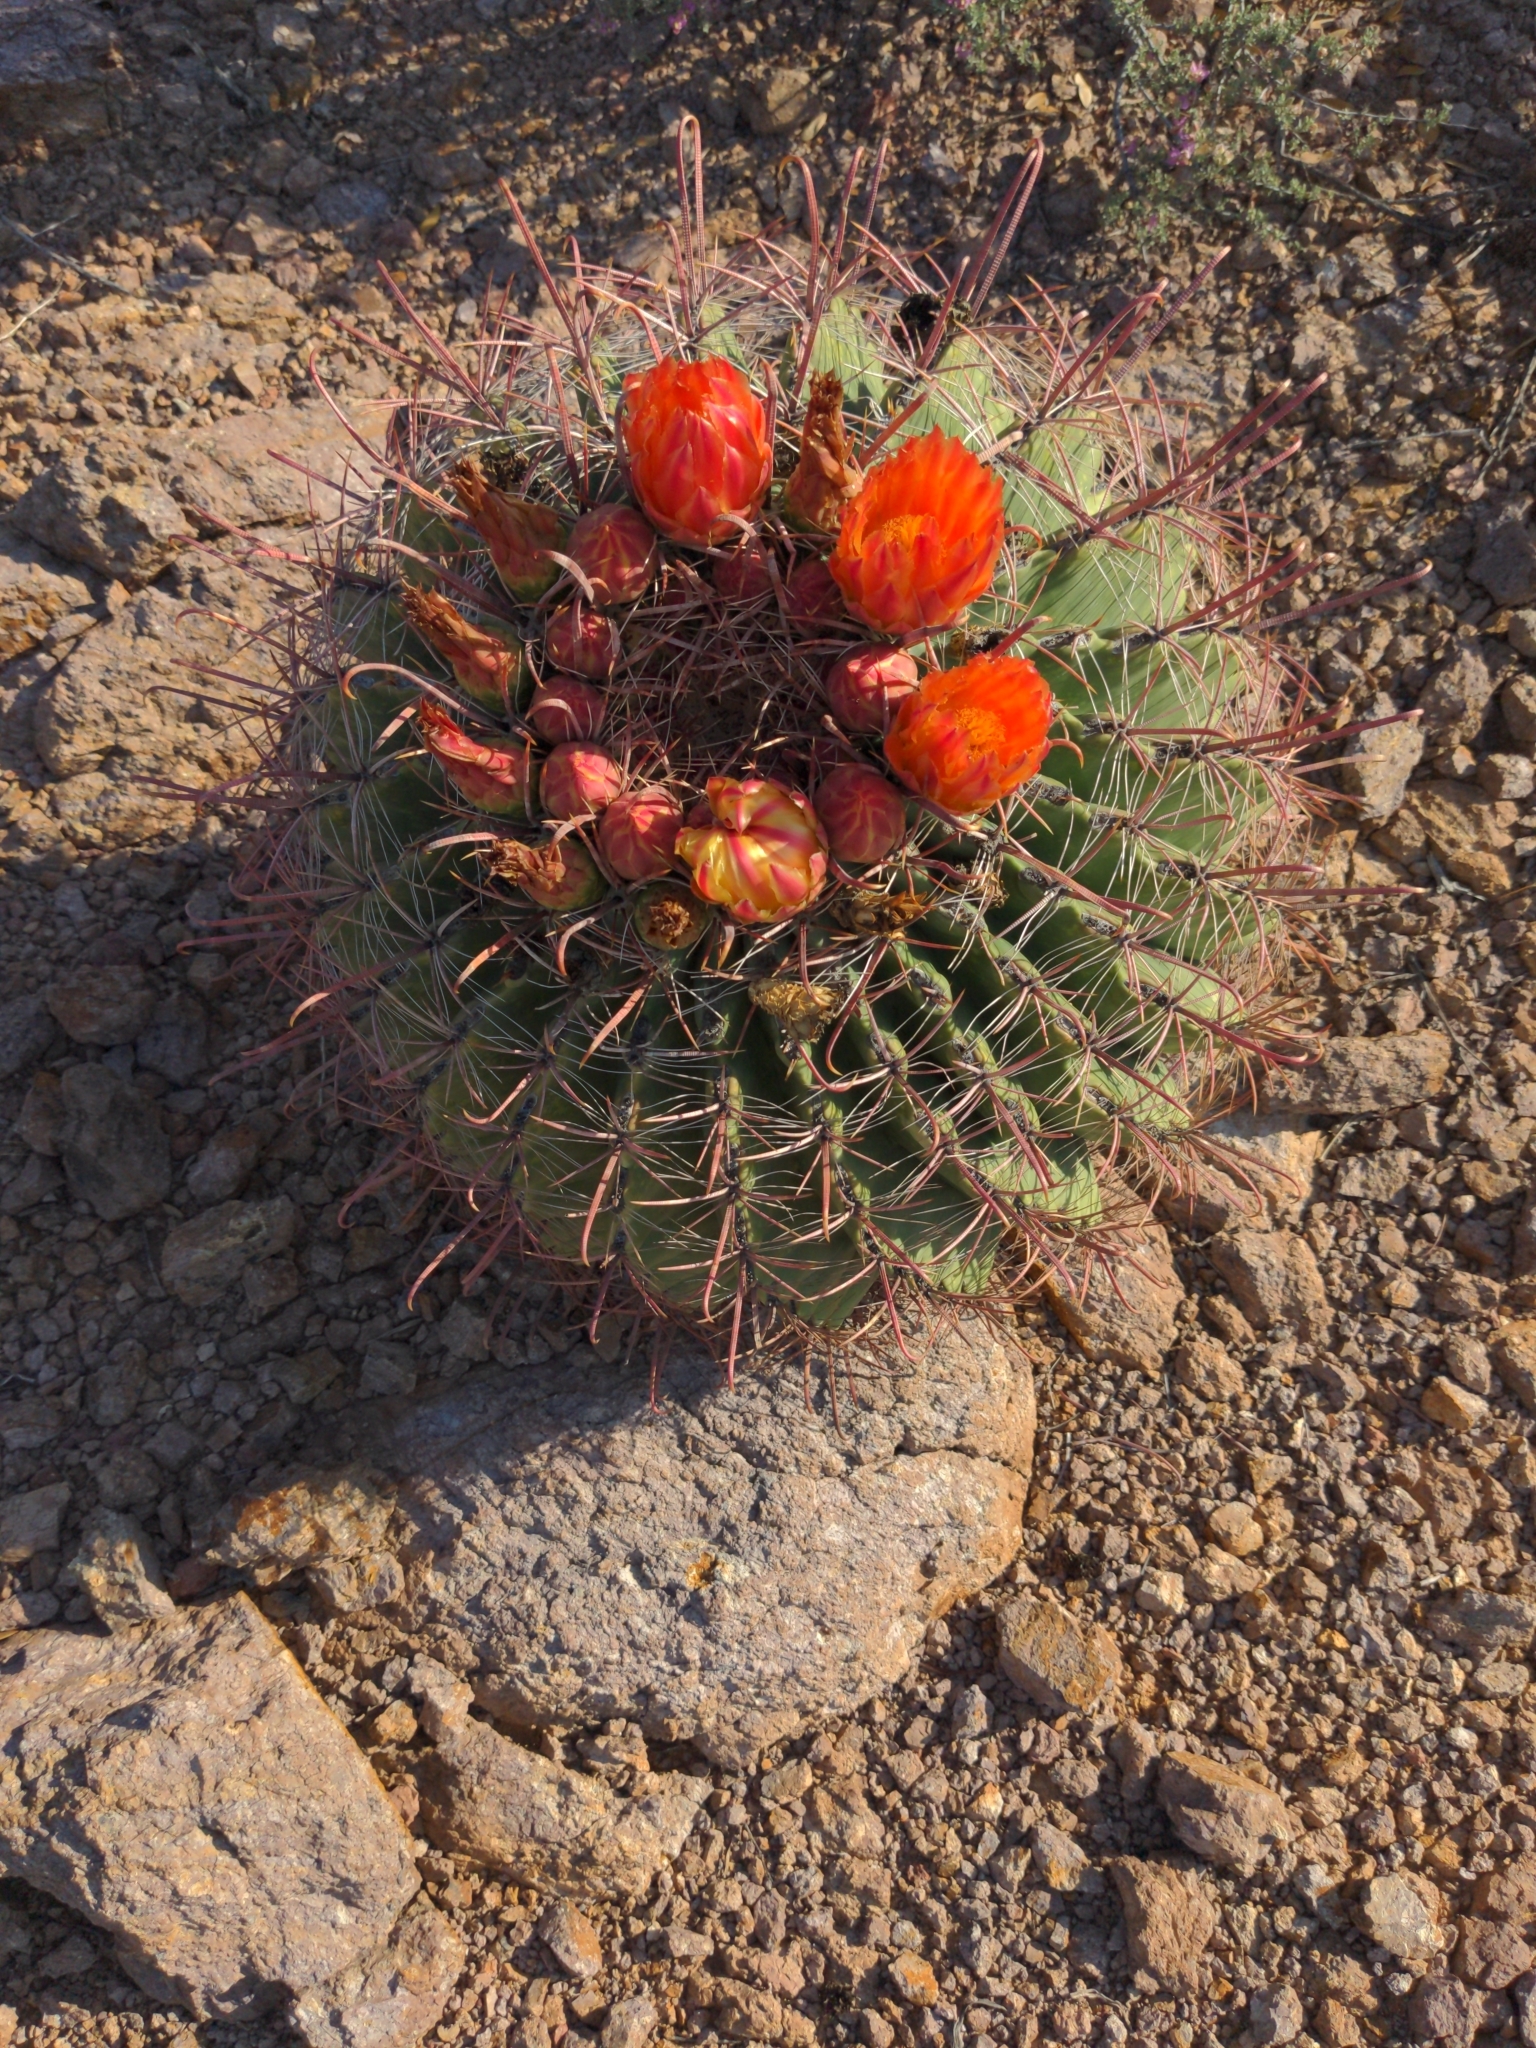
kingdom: Plantae
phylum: Tracheophyta
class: Magnoliopsida
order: Caryophyllales
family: Cactaceae
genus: Ferocactus
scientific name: Ferocactus wislizeni
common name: Candy barrel cactus
